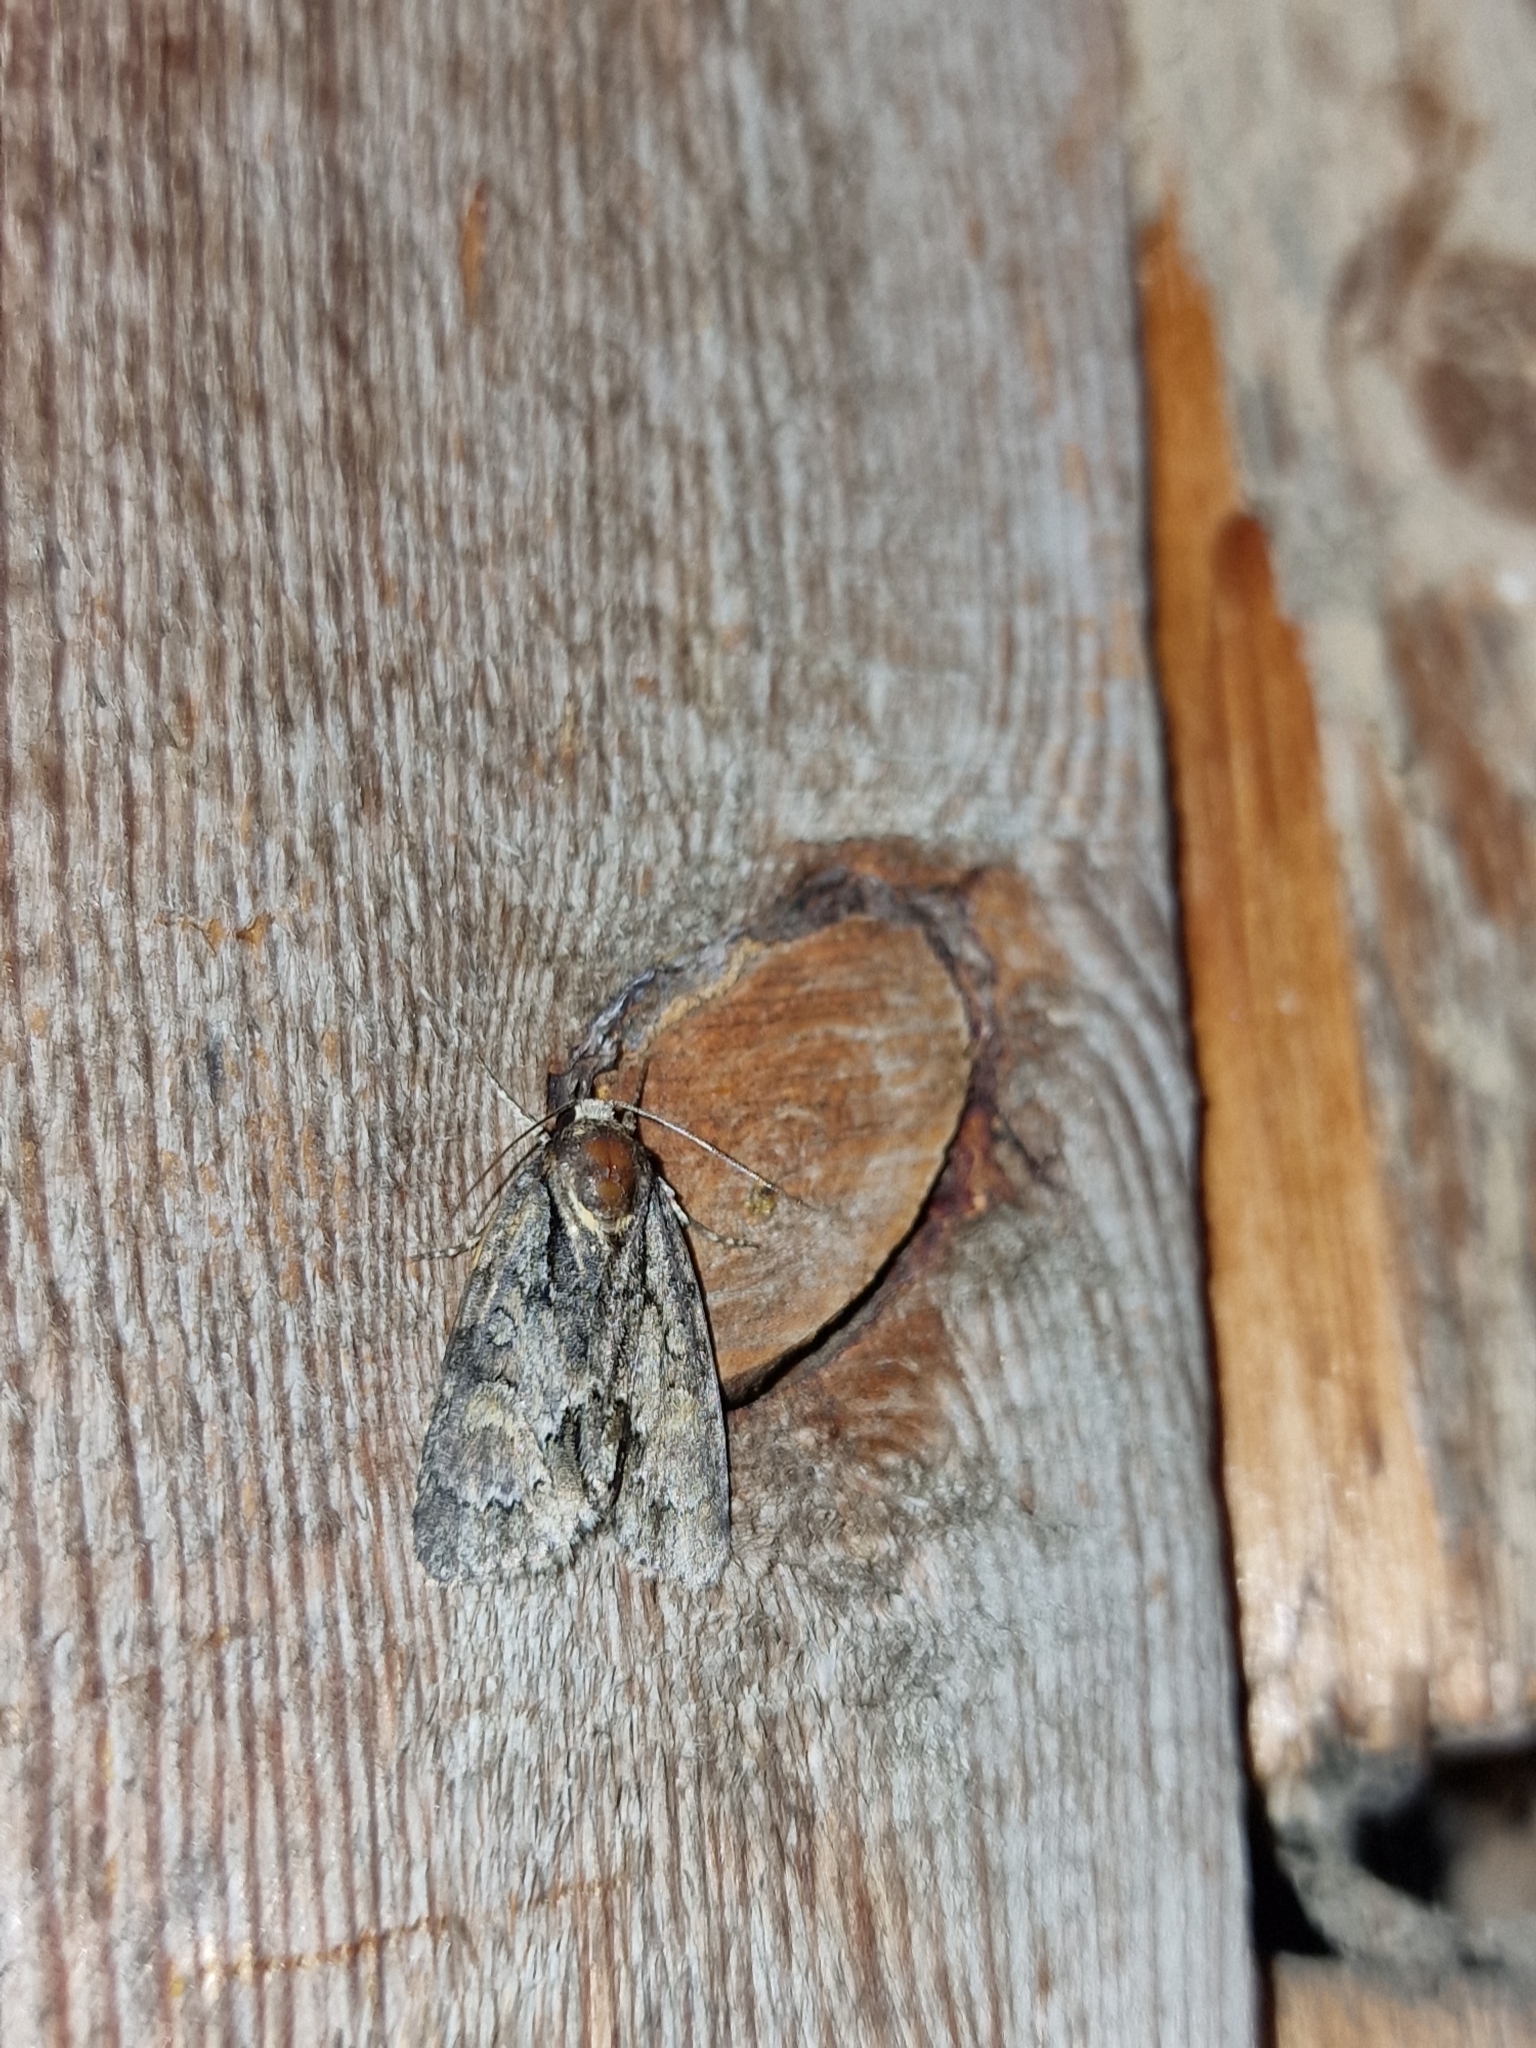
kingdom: Animalia
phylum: Arthropoda
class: Insecta
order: Lepidoptera
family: Noctuidae
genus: Cryphia
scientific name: Cryphia algae
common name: Tree-lichen beauty
